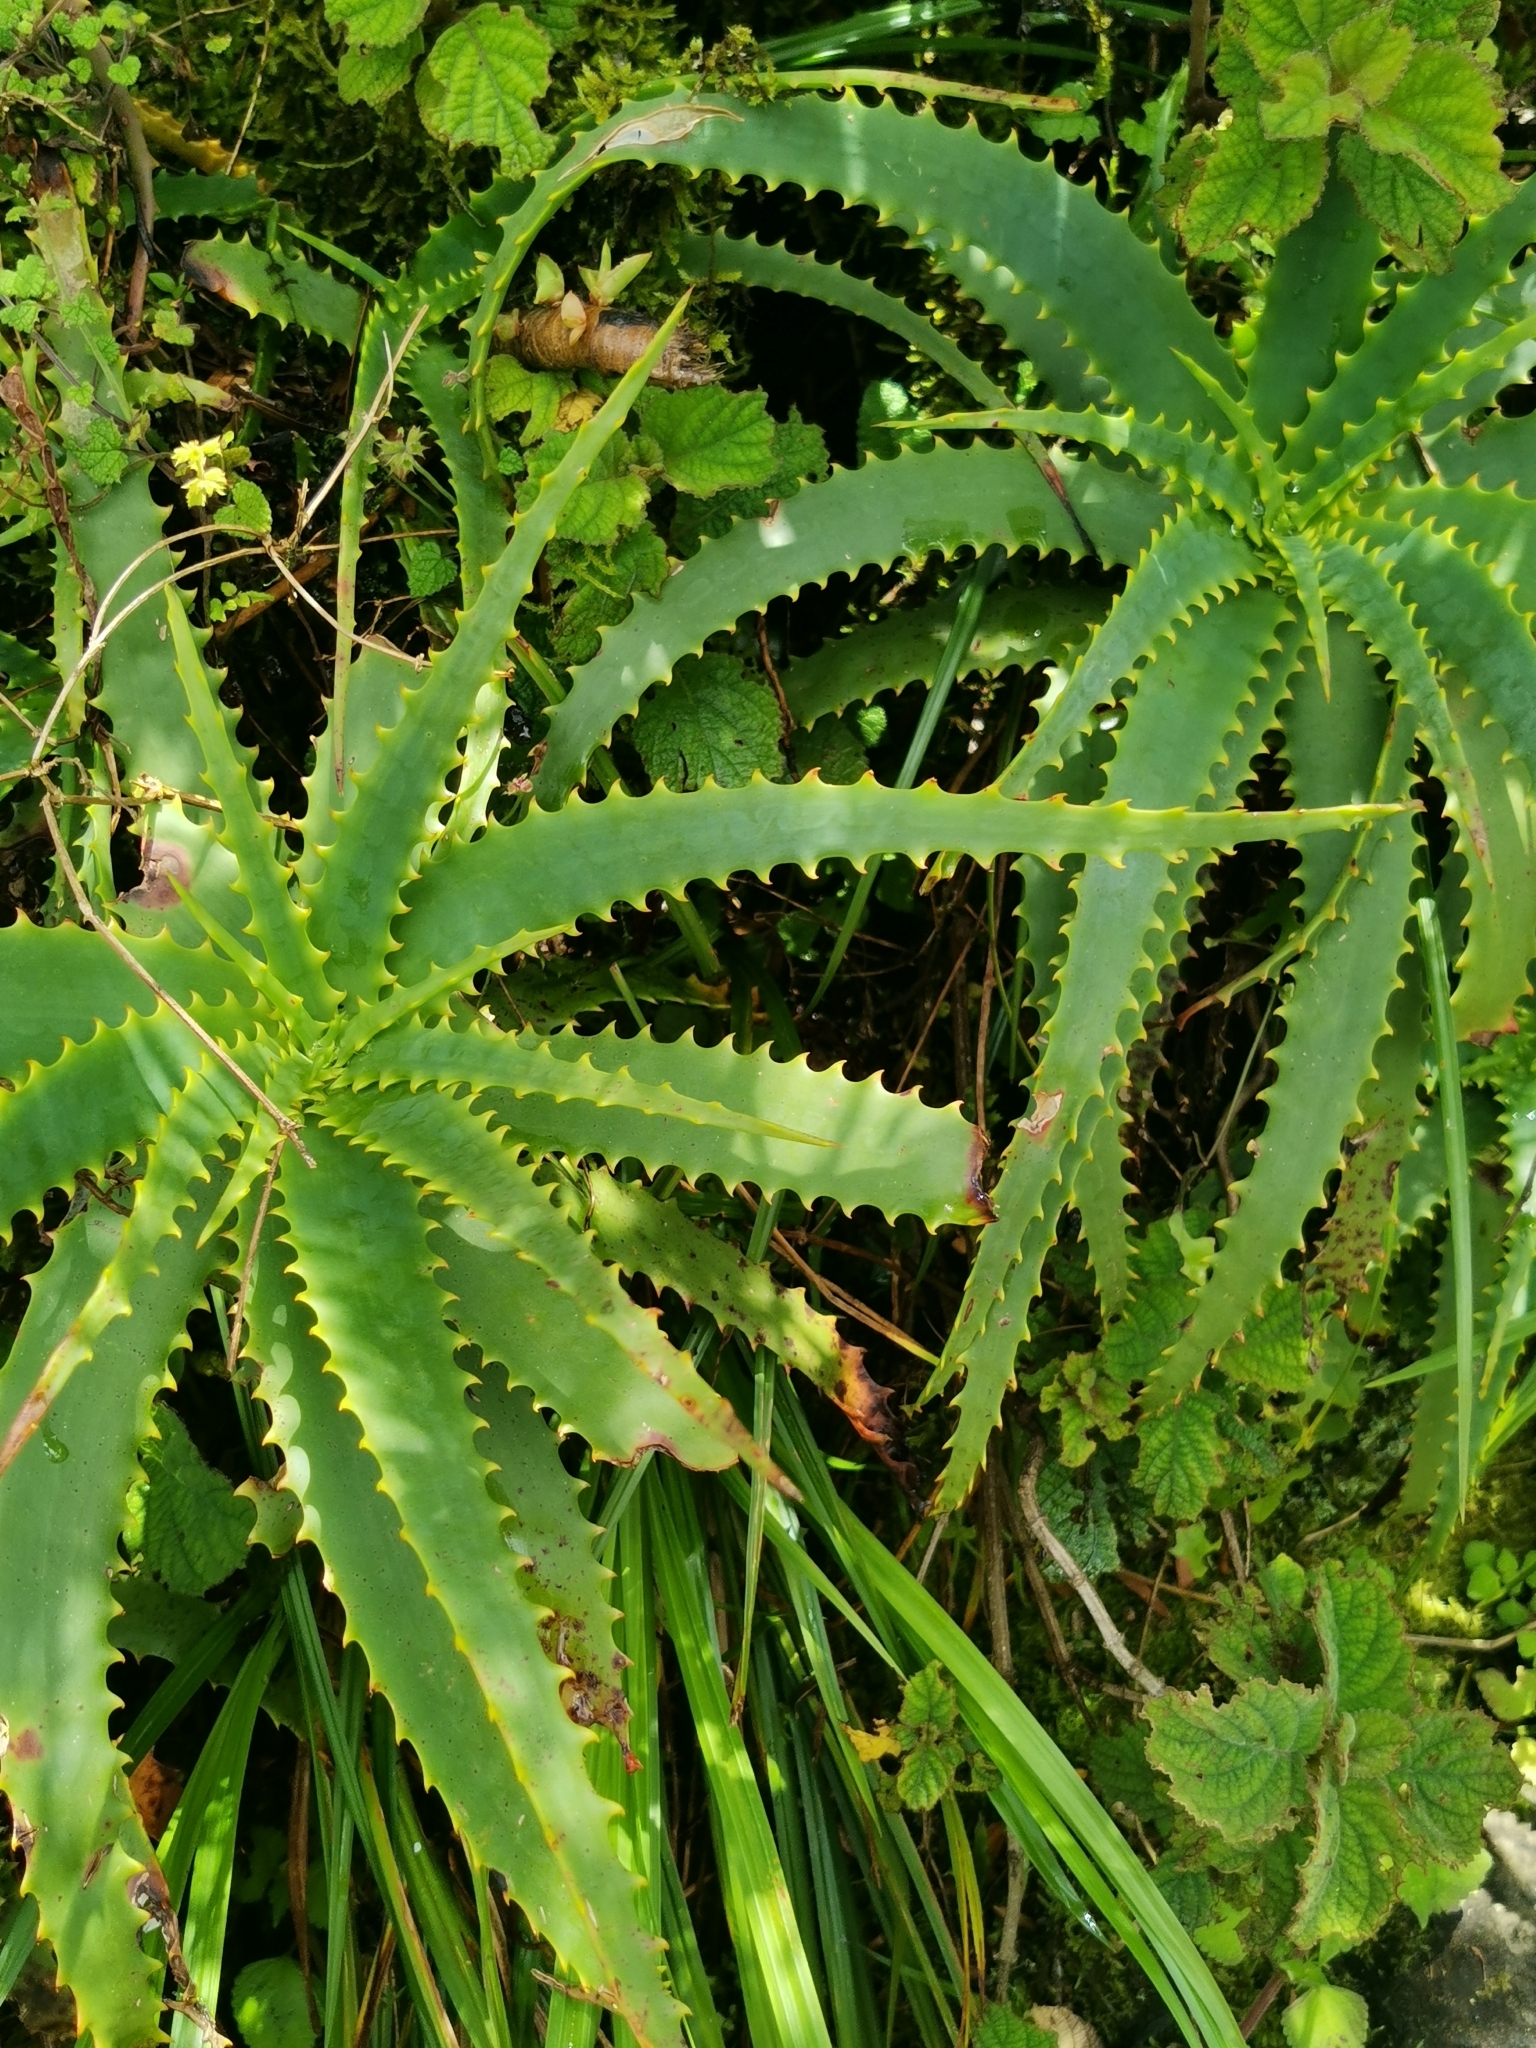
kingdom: Plantae
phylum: Tracheophyta
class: Liliopsida
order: Asparagales
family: Asphodelaceae
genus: Aloe
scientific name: Aloe arborescens
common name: Candelabra aloe
